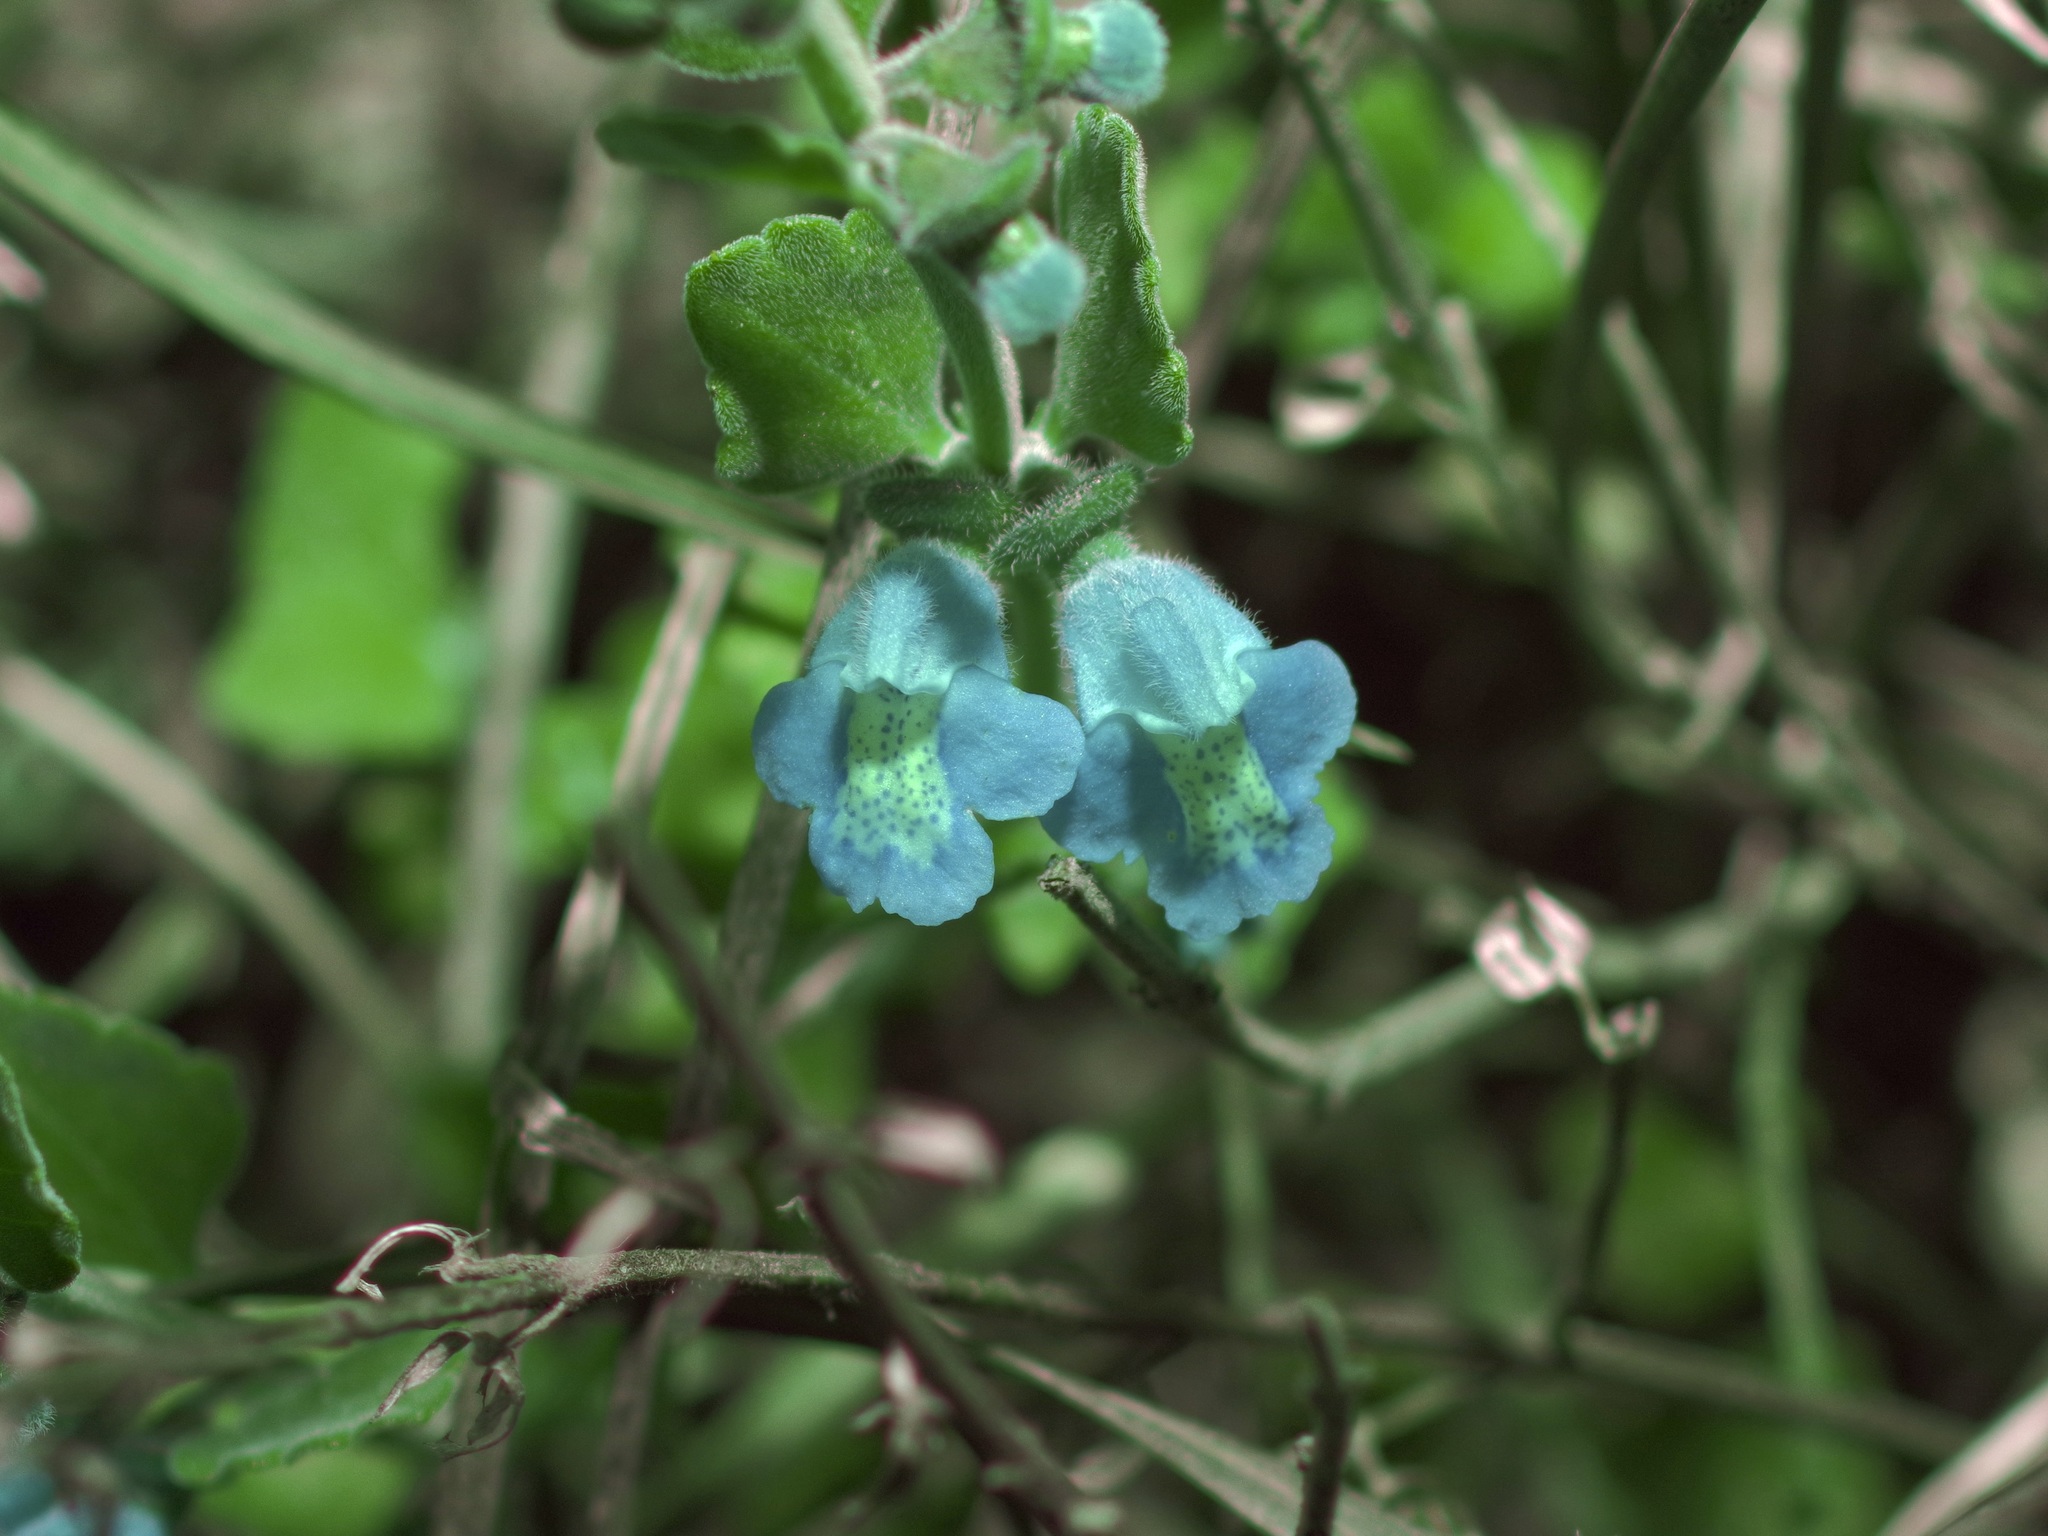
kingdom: Plantae
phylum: Tracheophyta
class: Magnoliopsida
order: Lamiales
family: Lamiaceae
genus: Scutellaria
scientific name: Scutellaria muriculata
